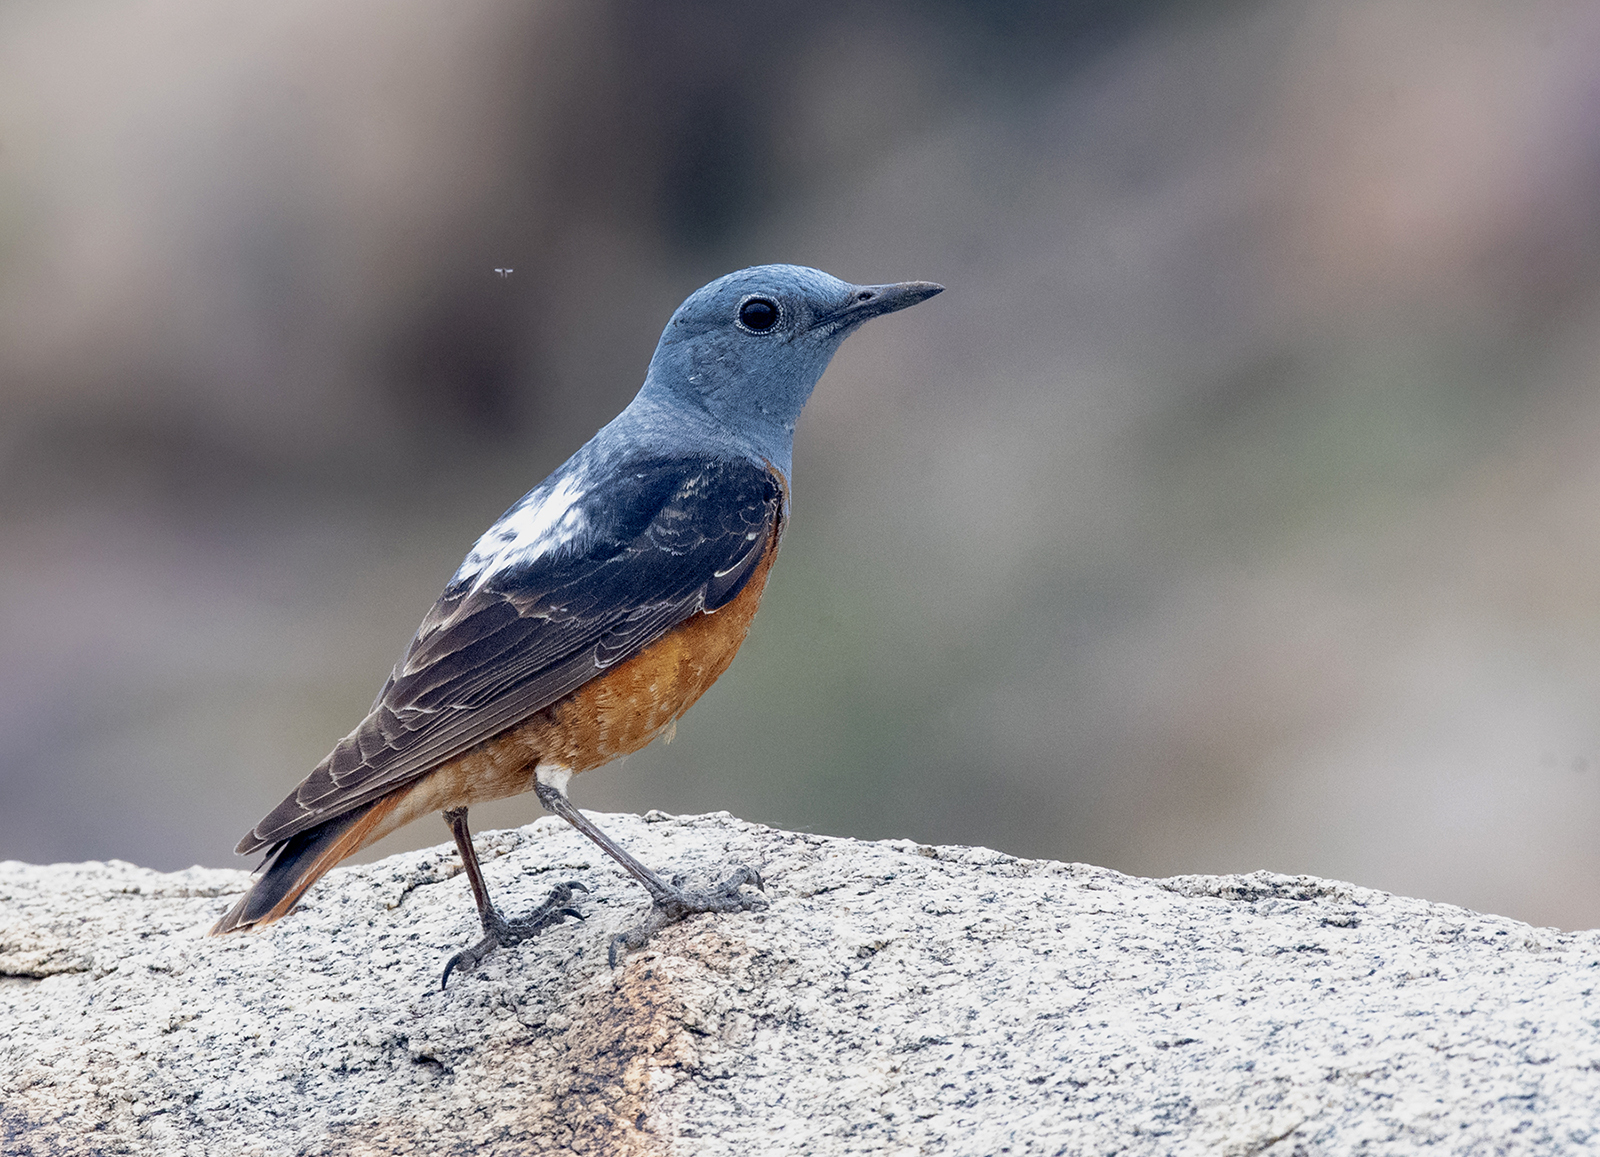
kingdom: Animalia
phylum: Chordata
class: Aves
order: Passeriformes
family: Muscicapidae
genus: Monticola
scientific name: Monticola saxatilis
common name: Rufous-tailed rock thrush
